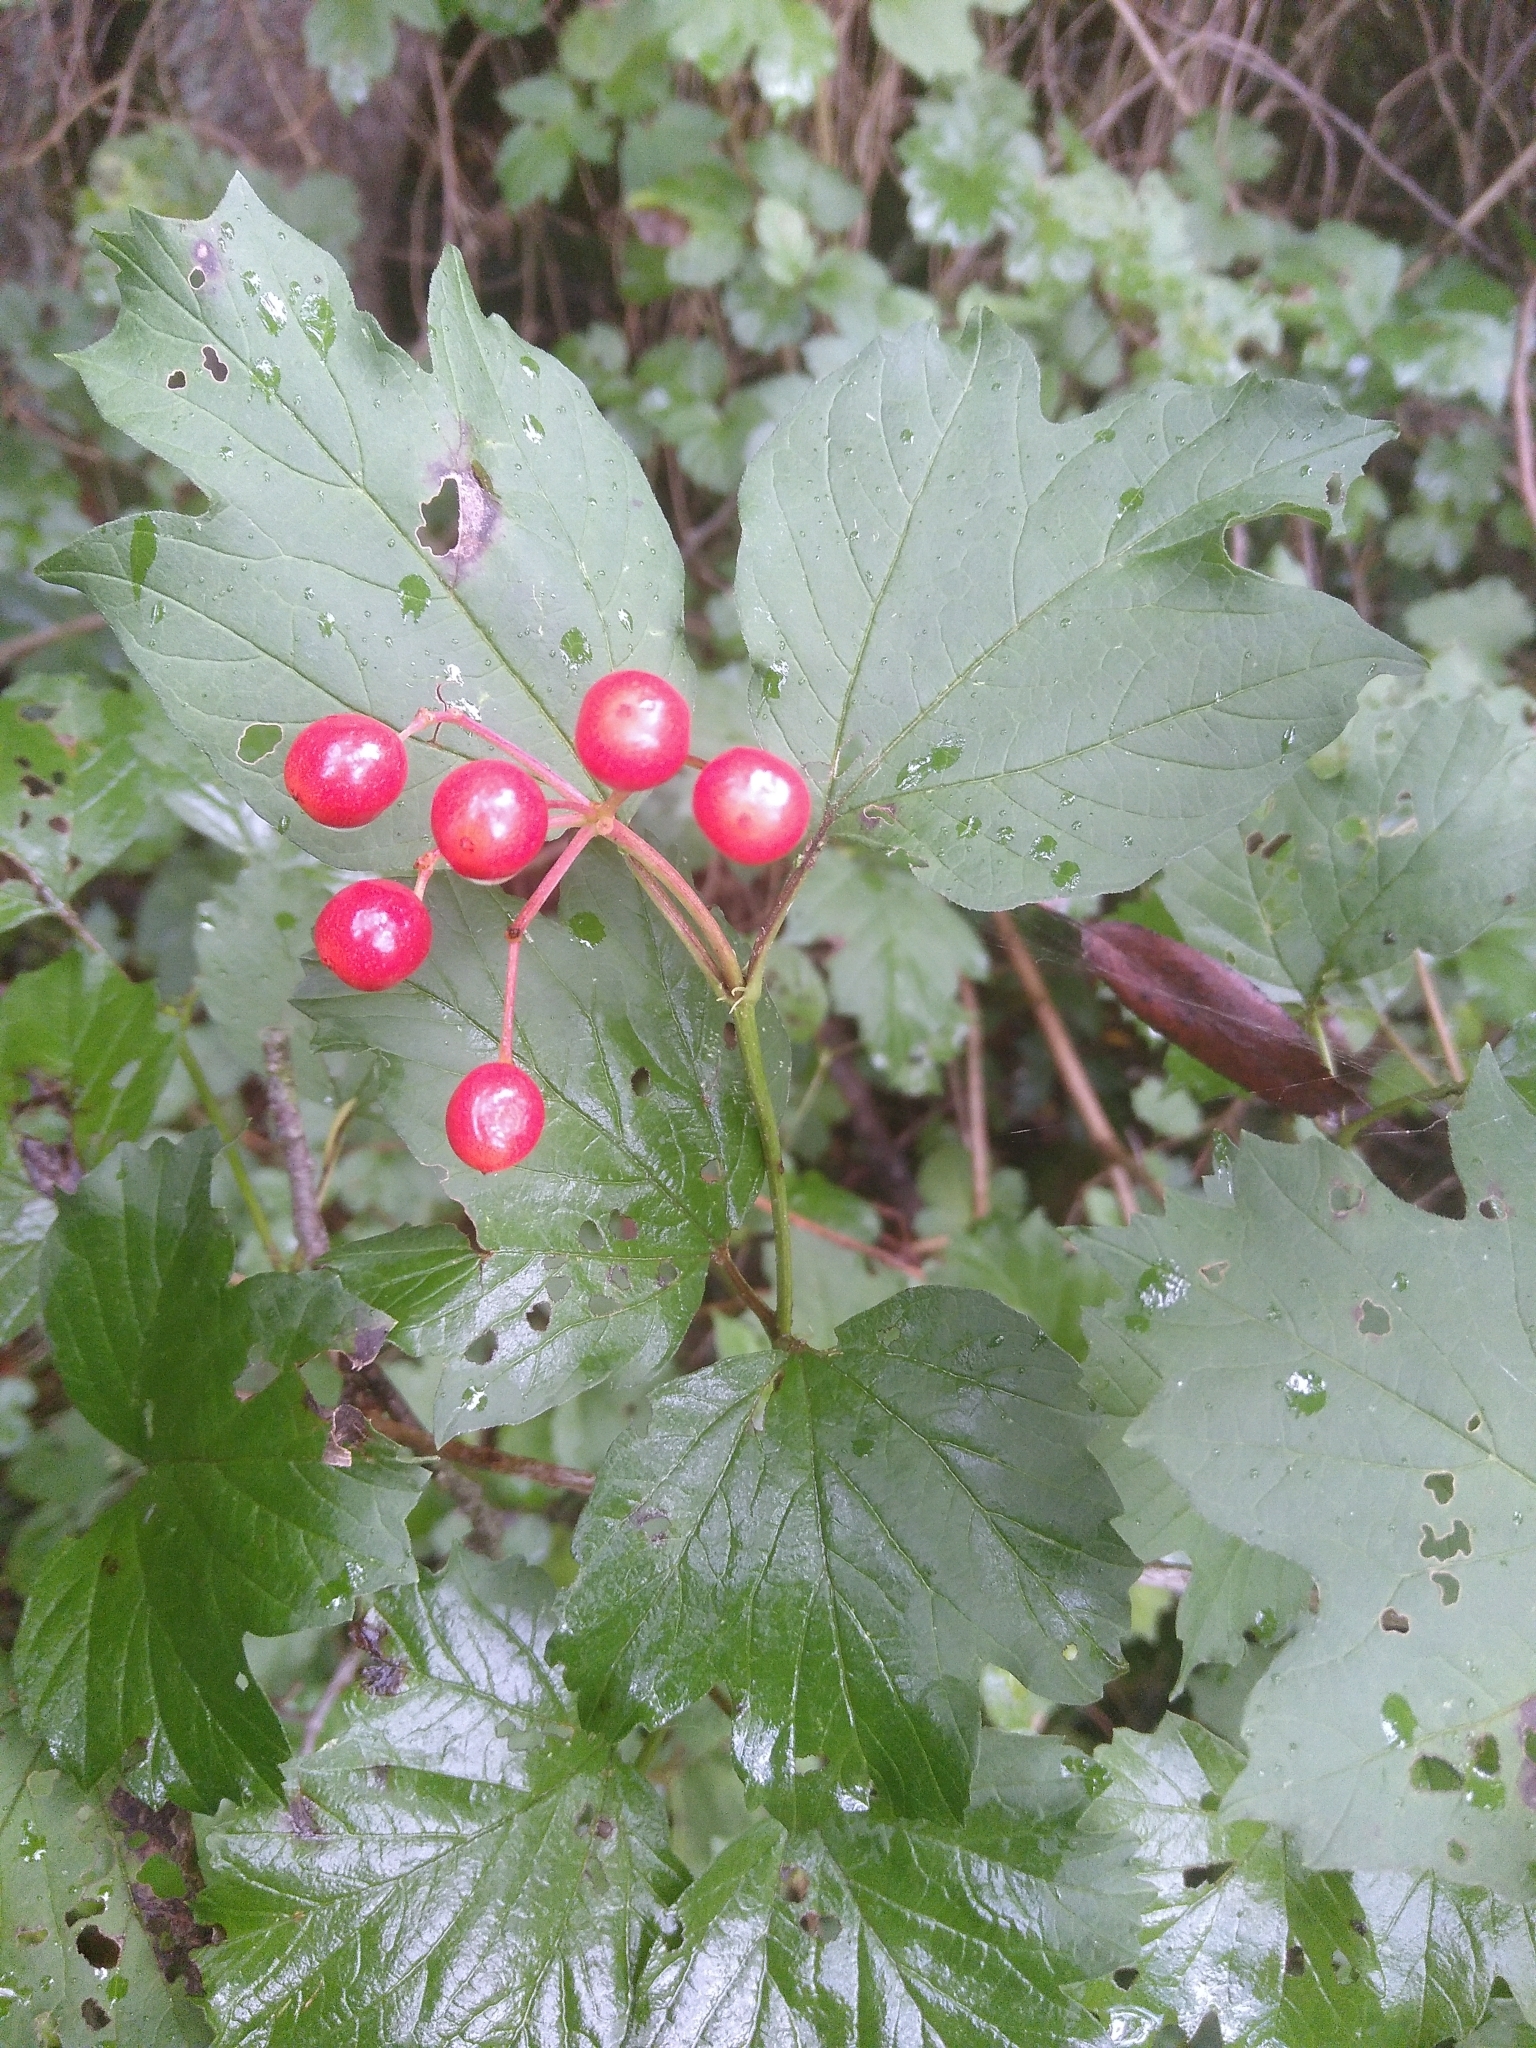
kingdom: Plantae
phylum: Tracheophyta
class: Magnoliopsida
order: Dipsacales
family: Viburnaceae
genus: Viburnum
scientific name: Viburnum opulus
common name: Guelder-rose
